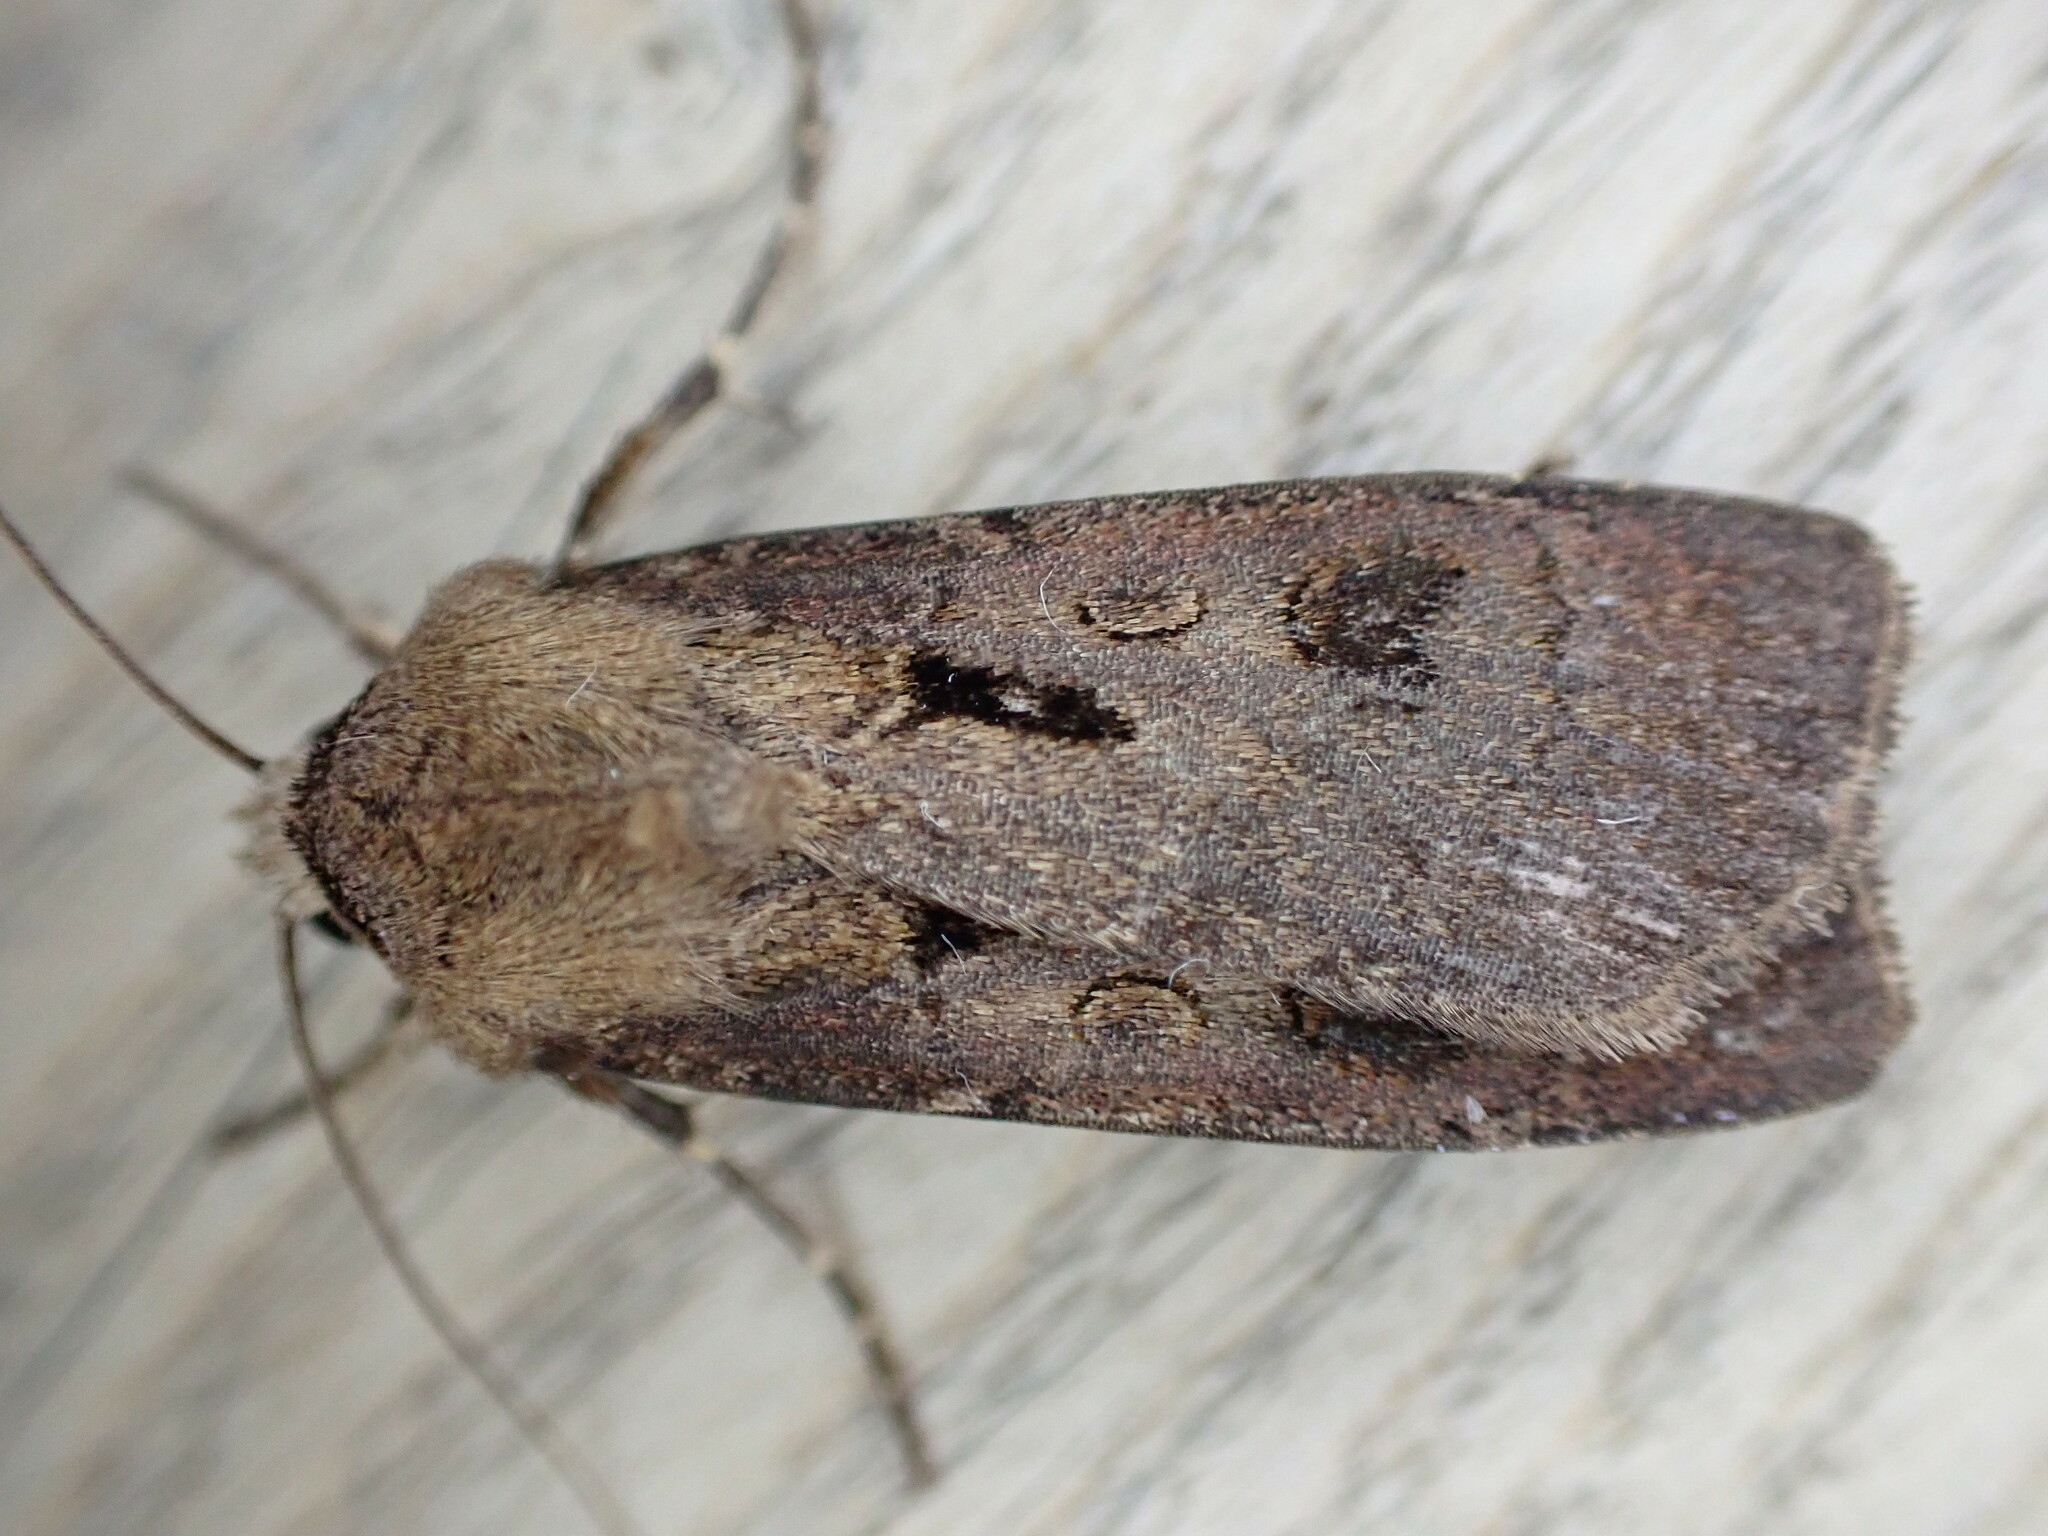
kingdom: Animalia
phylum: Arthropoda
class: Insecta
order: Lepidoptera
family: Noctuidae
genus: Agrotis
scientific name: Agrotis exclamationis
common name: Heart and dart
